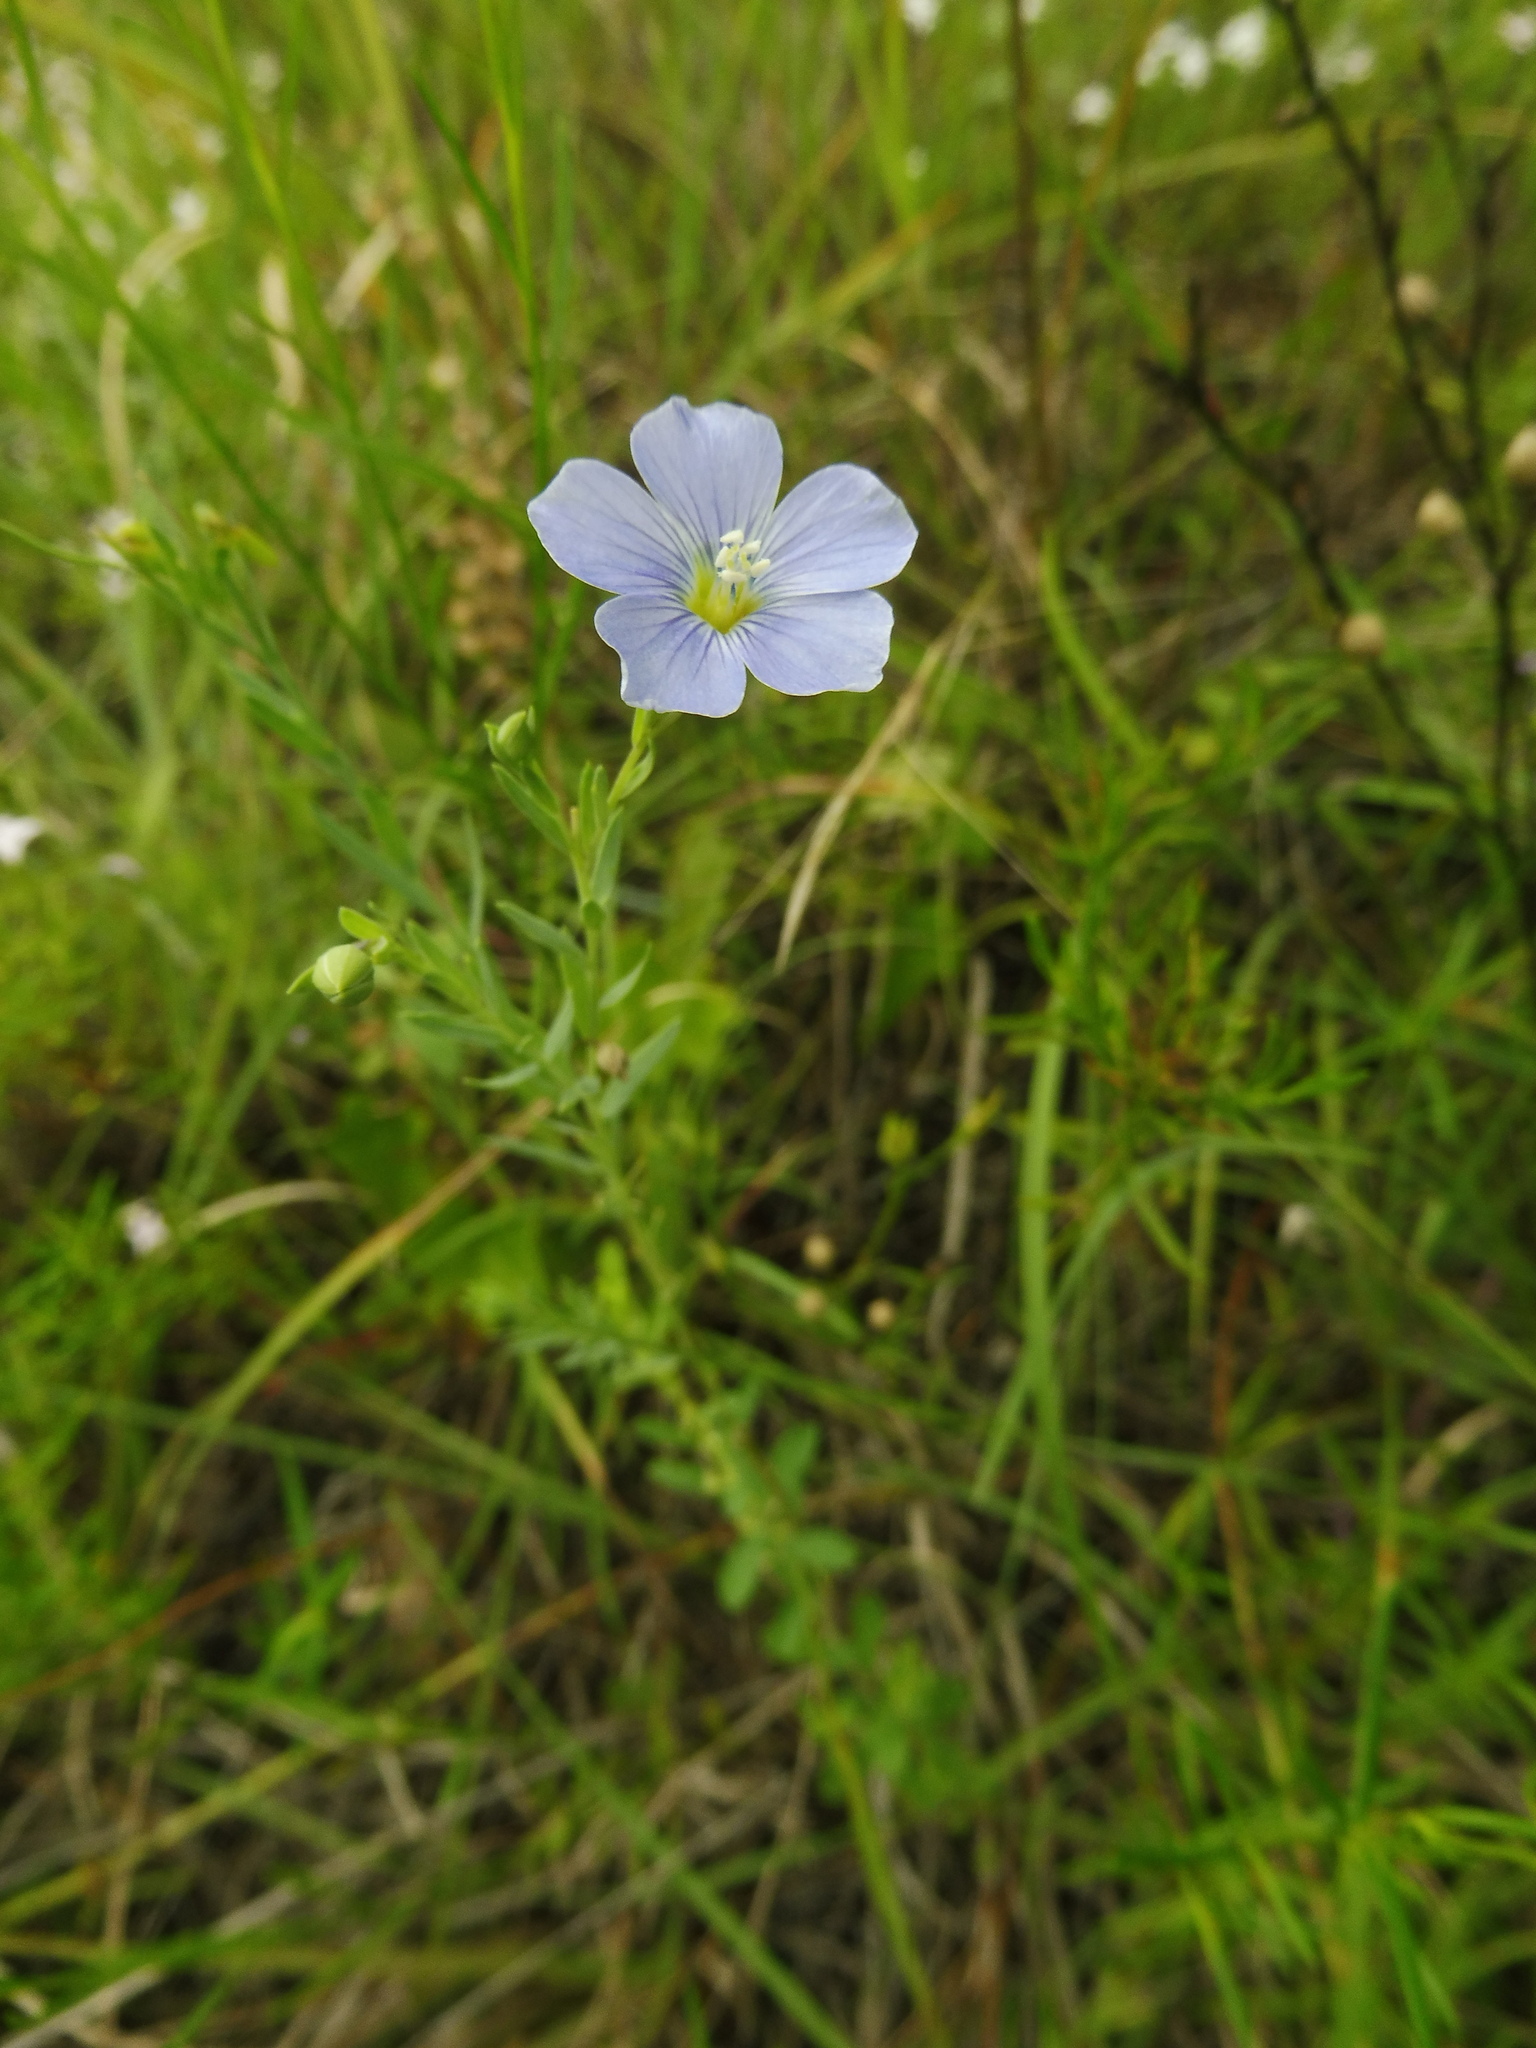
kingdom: Plantae
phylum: Tracheophyta
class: Magnoliopsida
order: Malpighiales
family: Linaceae
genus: Linum
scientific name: Linum pratense
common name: Norton's flax
